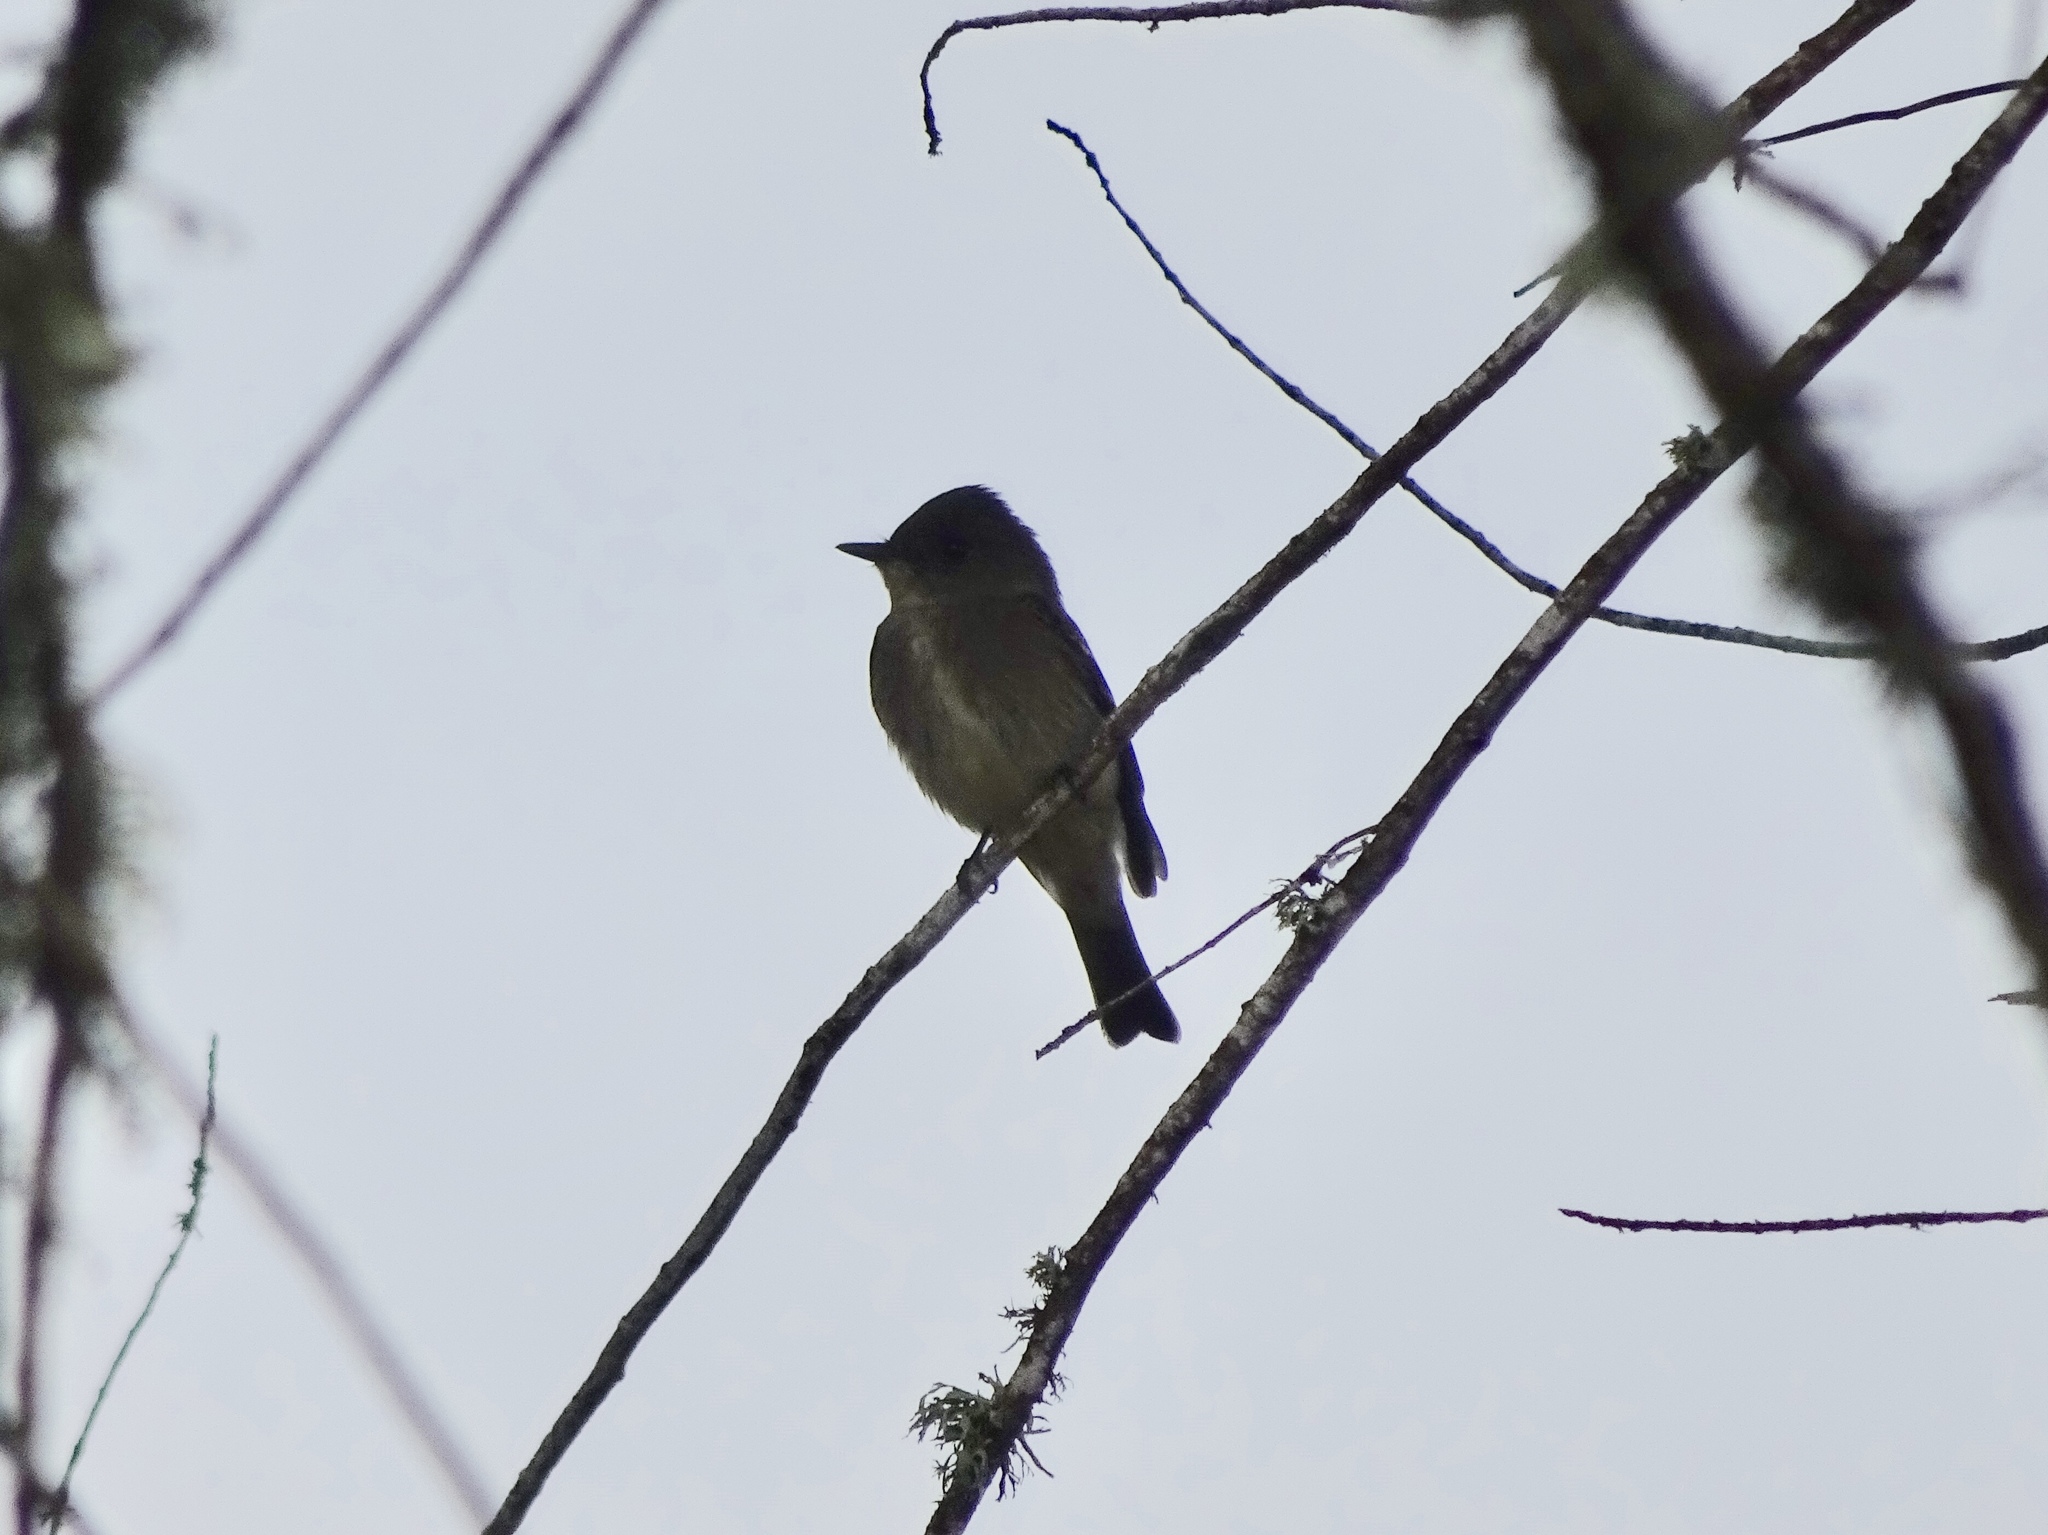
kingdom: Animalia
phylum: Chordata
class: Aves
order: Passeriformes
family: Tyrannidae
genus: Contopus
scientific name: Contopus sordidulus
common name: Western wood-pewee
